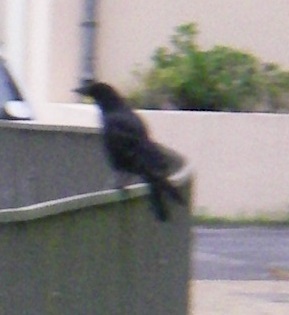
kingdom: Animalia
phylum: Chordata
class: Aves
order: Passeriformes
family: Corvidae
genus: Corvus
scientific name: Corvus corone
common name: Carrion crow
